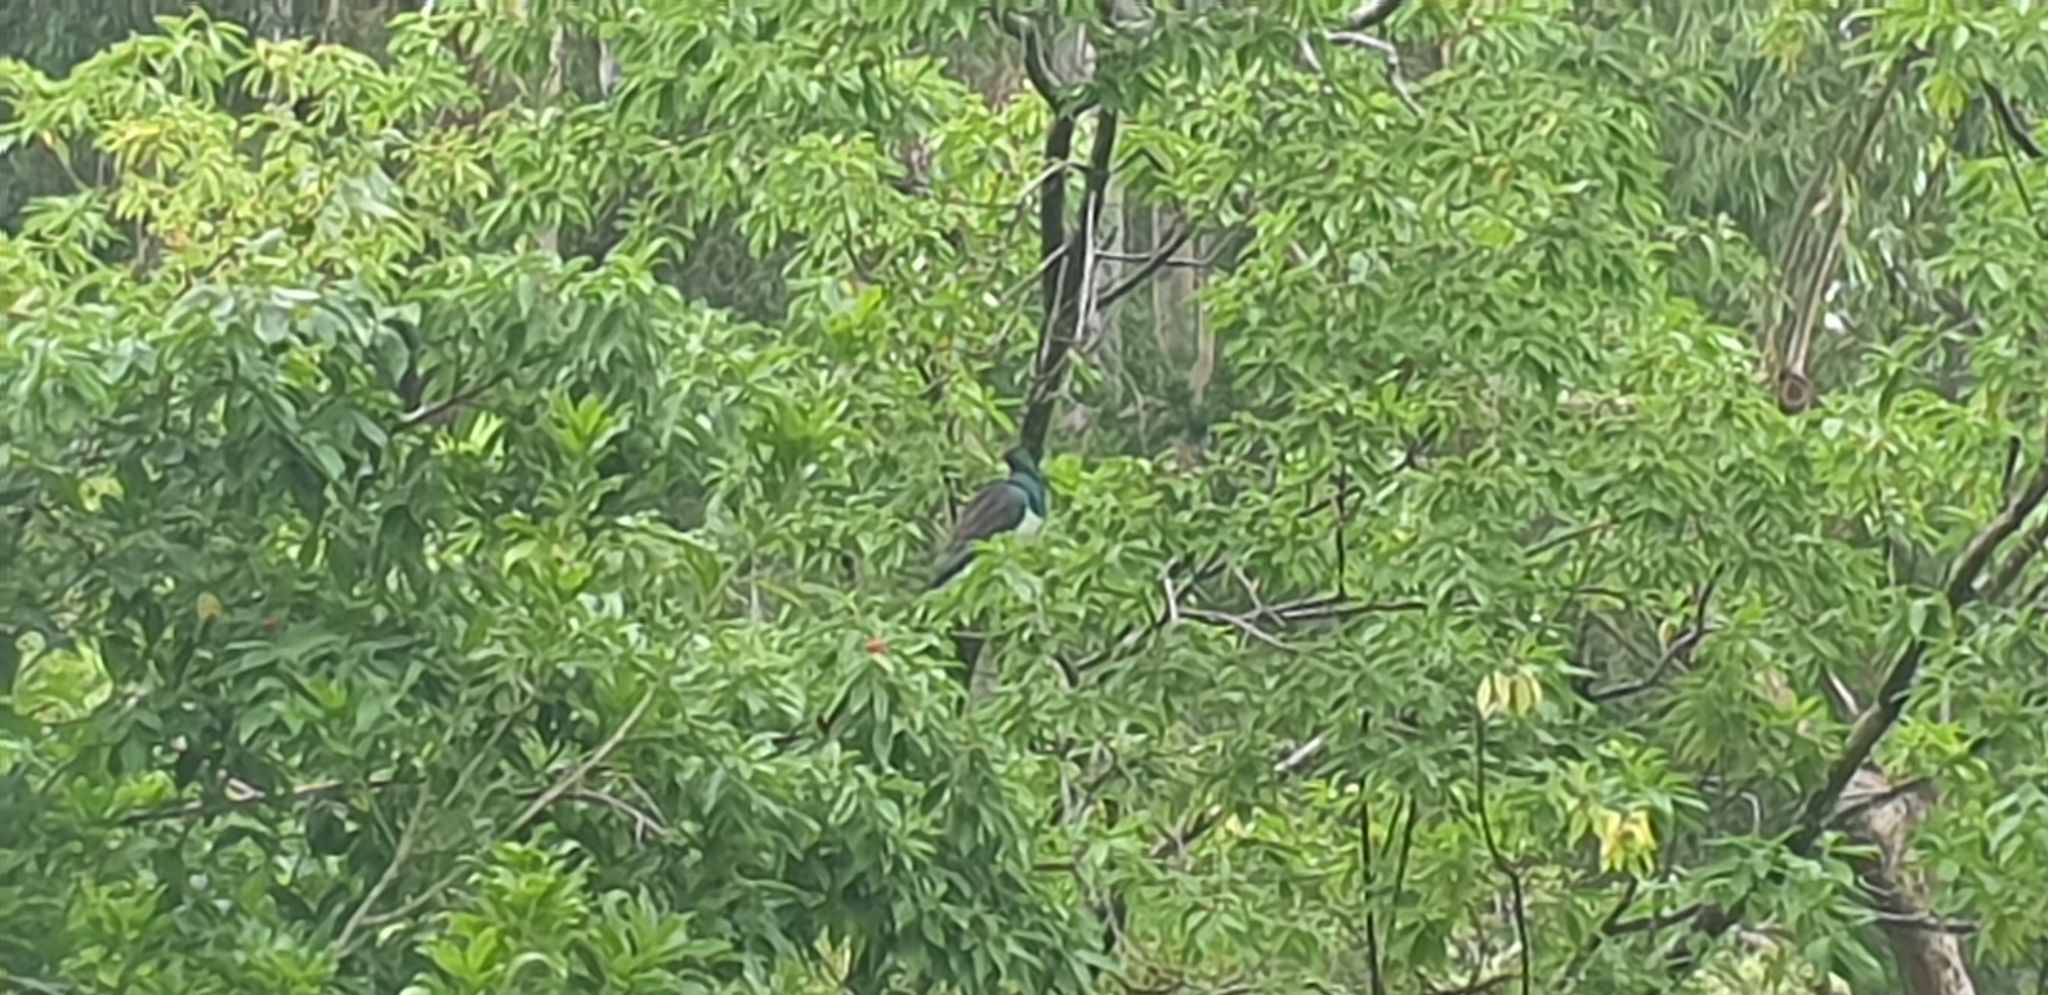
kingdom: Animalia
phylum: Chordata
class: Aves
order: Columbiformes
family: Columbidae
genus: Hemiphaga
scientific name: Hemiphaga novaeseelandiae
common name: New zealand pigeon
